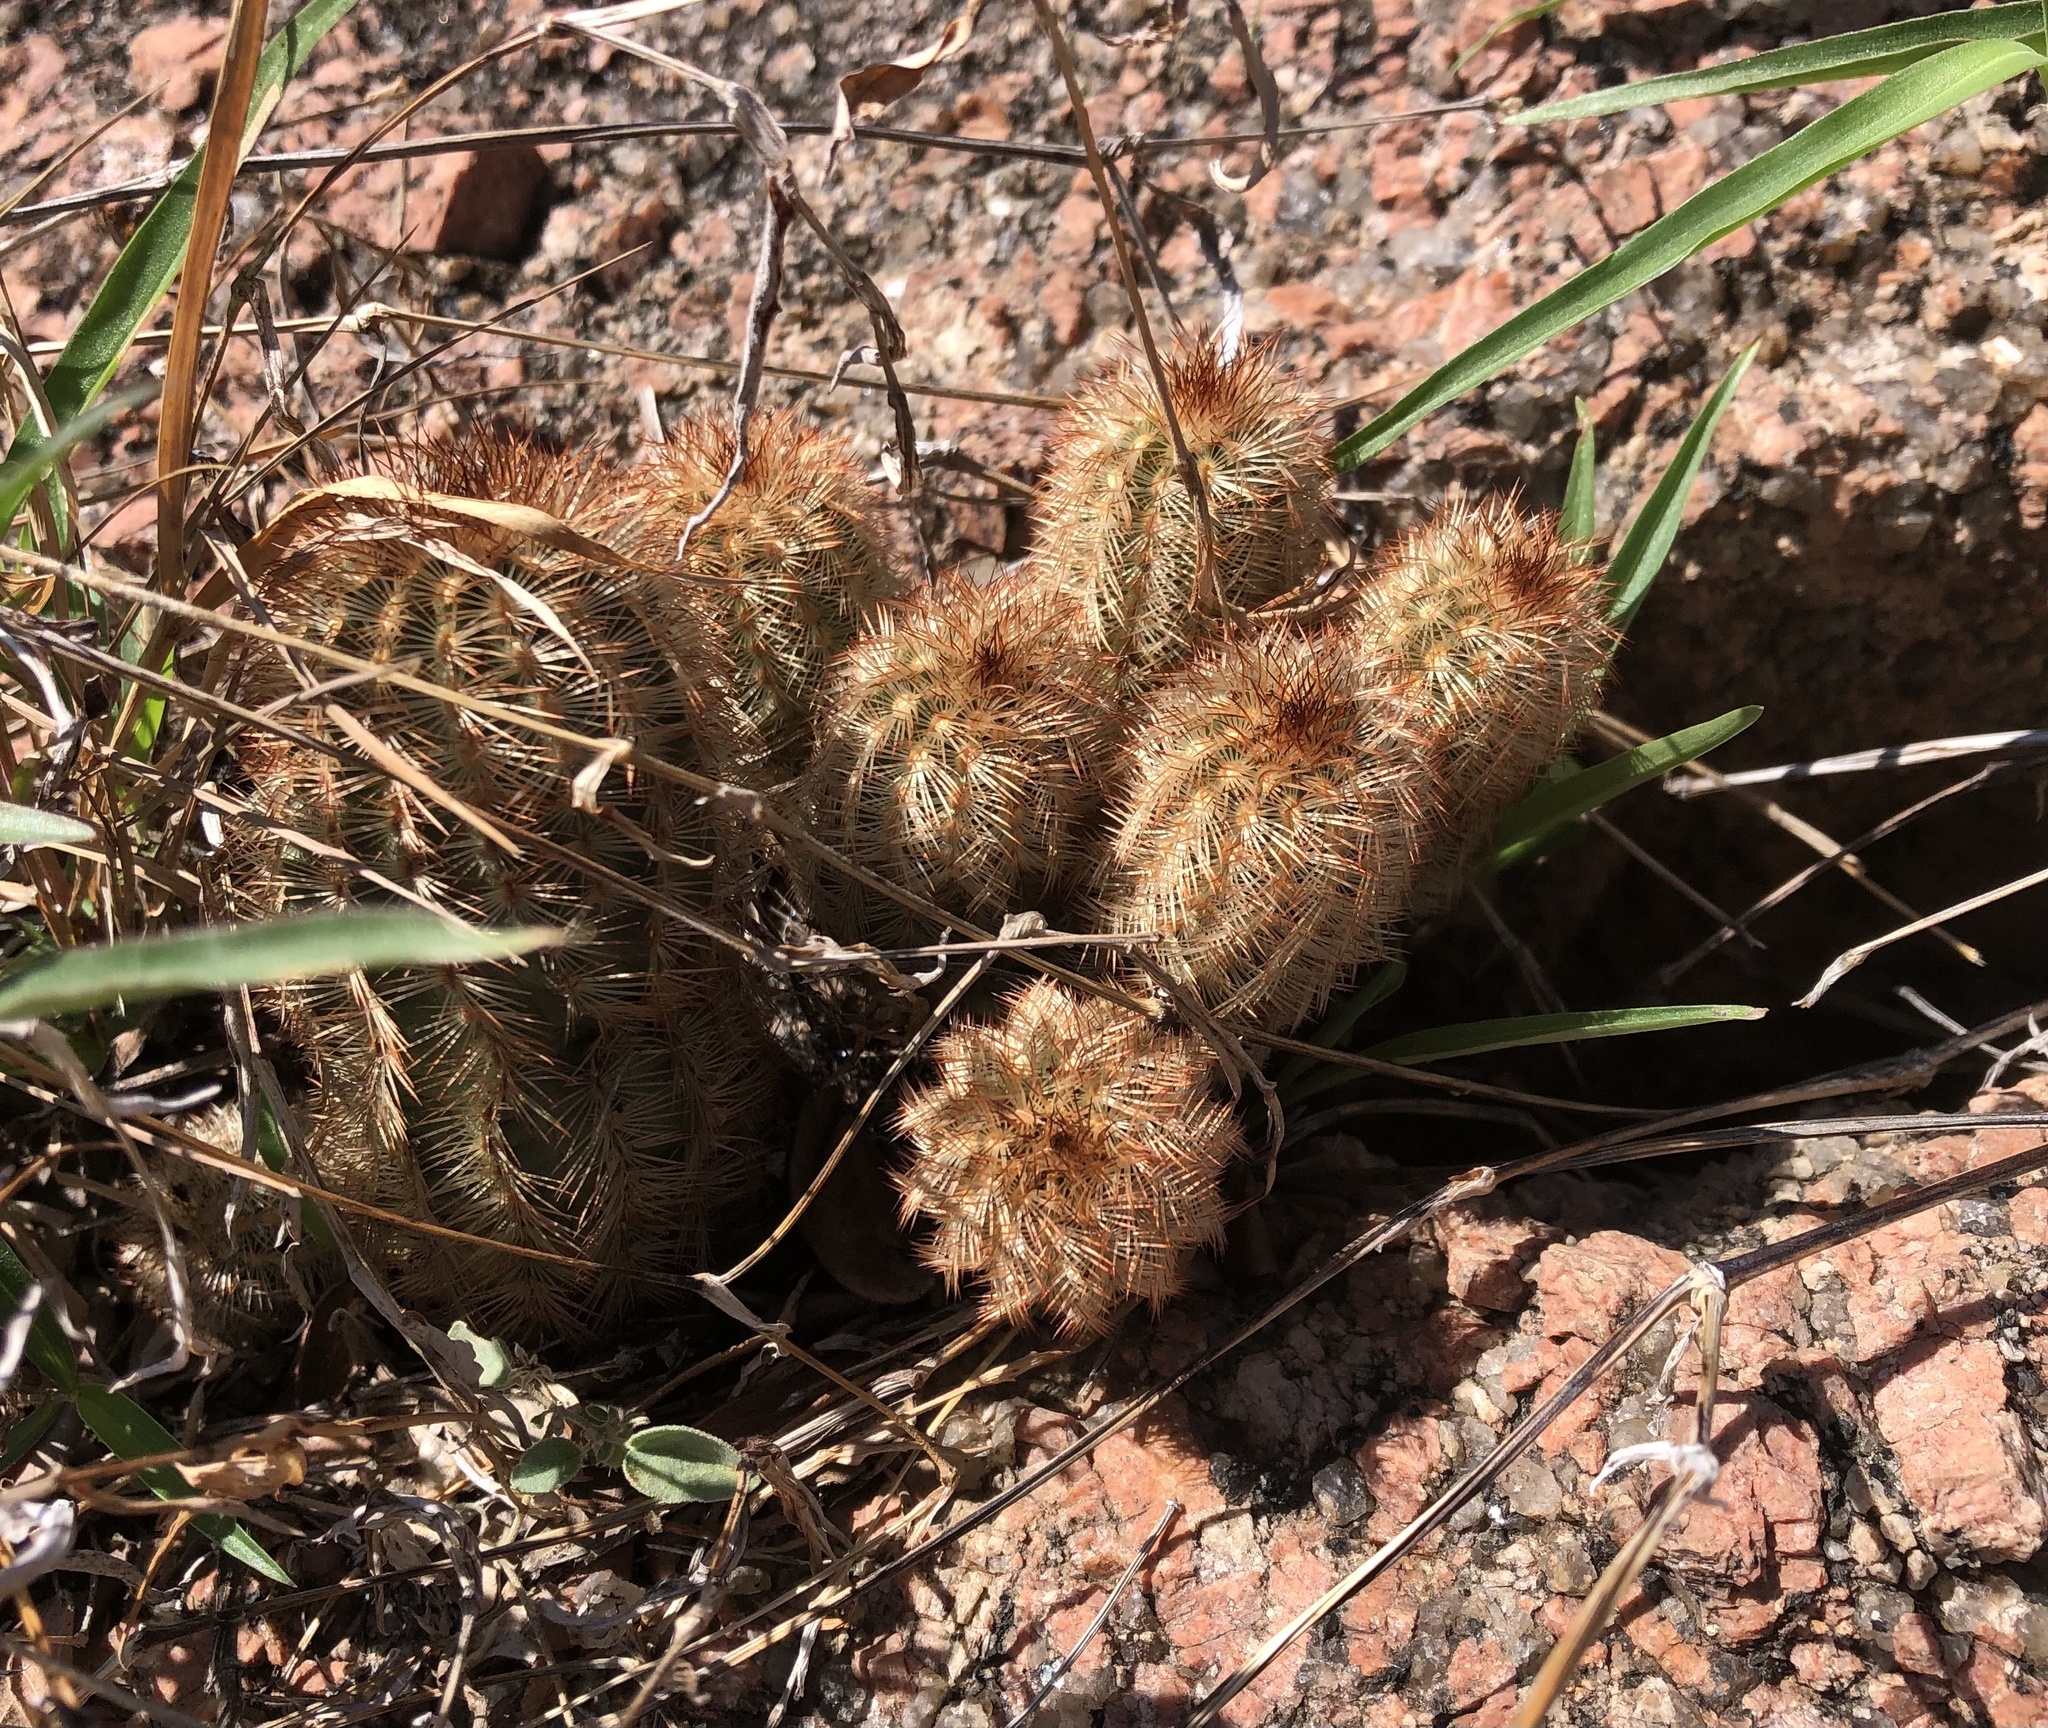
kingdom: Plantae
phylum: Tracheophyta
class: Magnoliopsida
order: Caryophyllales
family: Cactaceae
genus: Echinocereus
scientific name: Echinocereus reichenbachii
